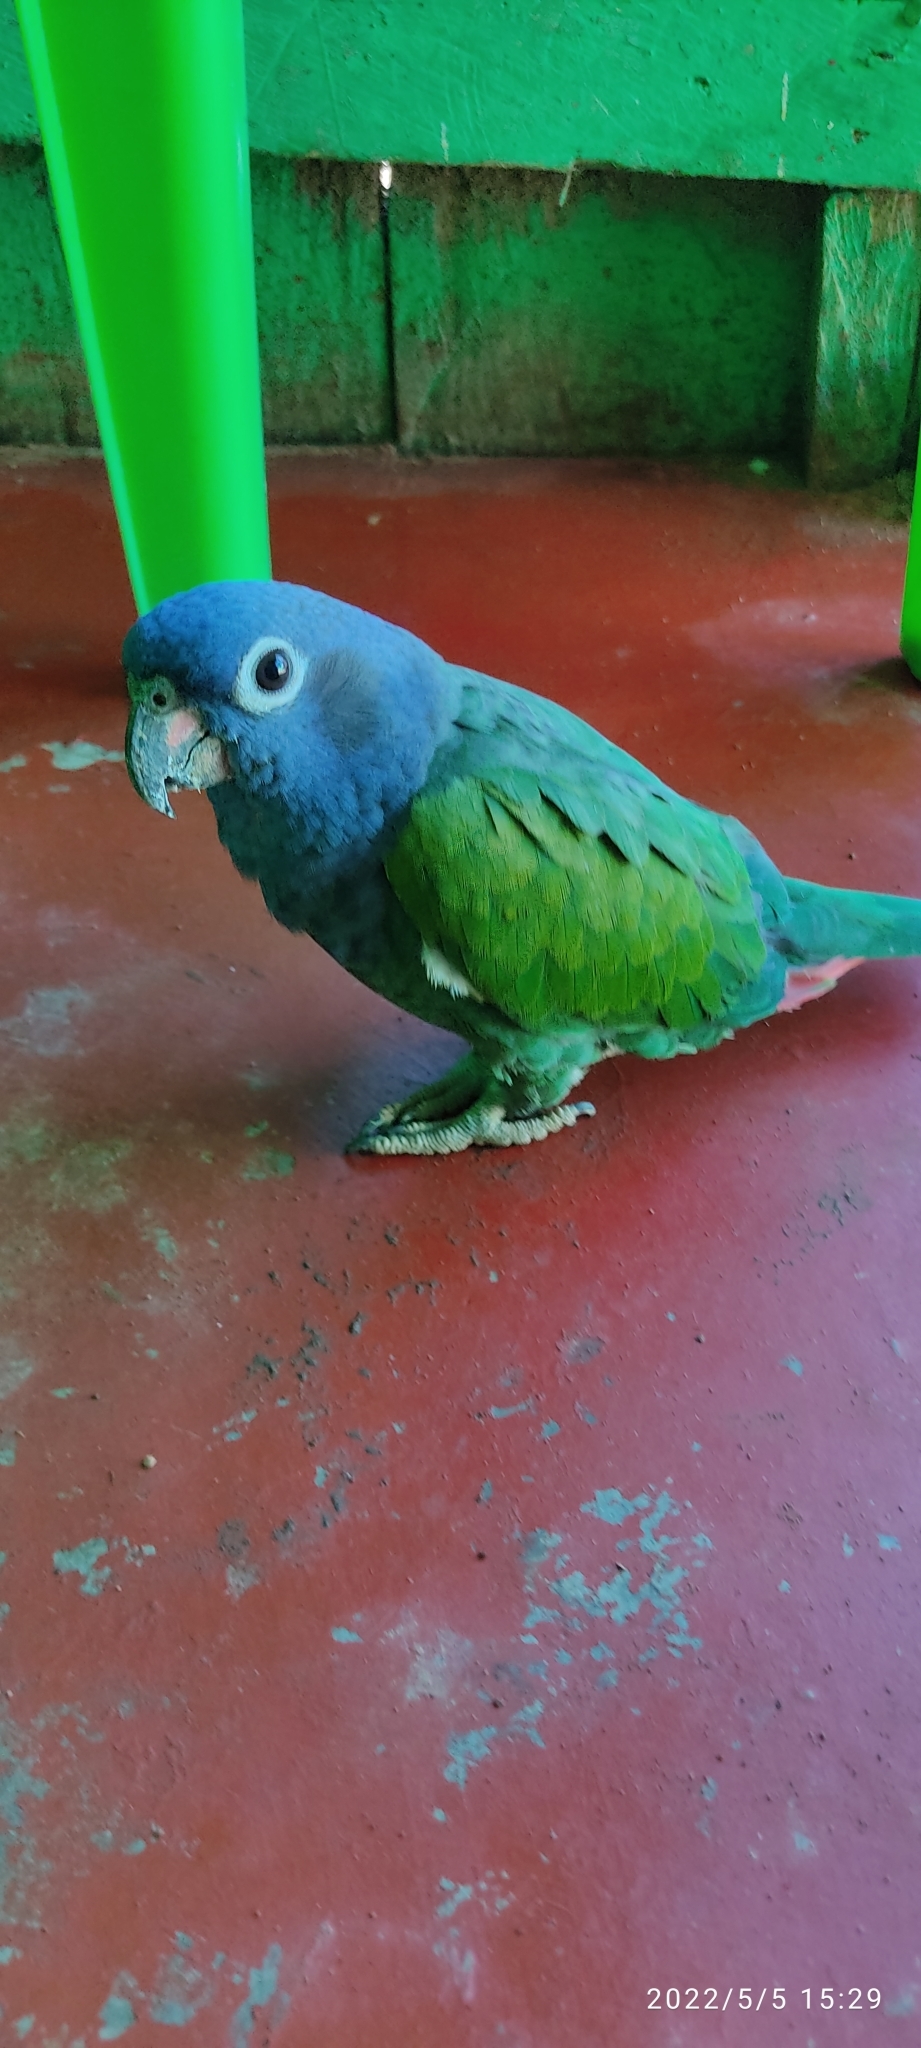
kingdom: Animalia
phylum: Chordata
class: Aves
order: Psittaciformes
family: Psittacidae
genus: Pionus
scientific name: Pionus menstruus
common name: Blue-headed parrot
